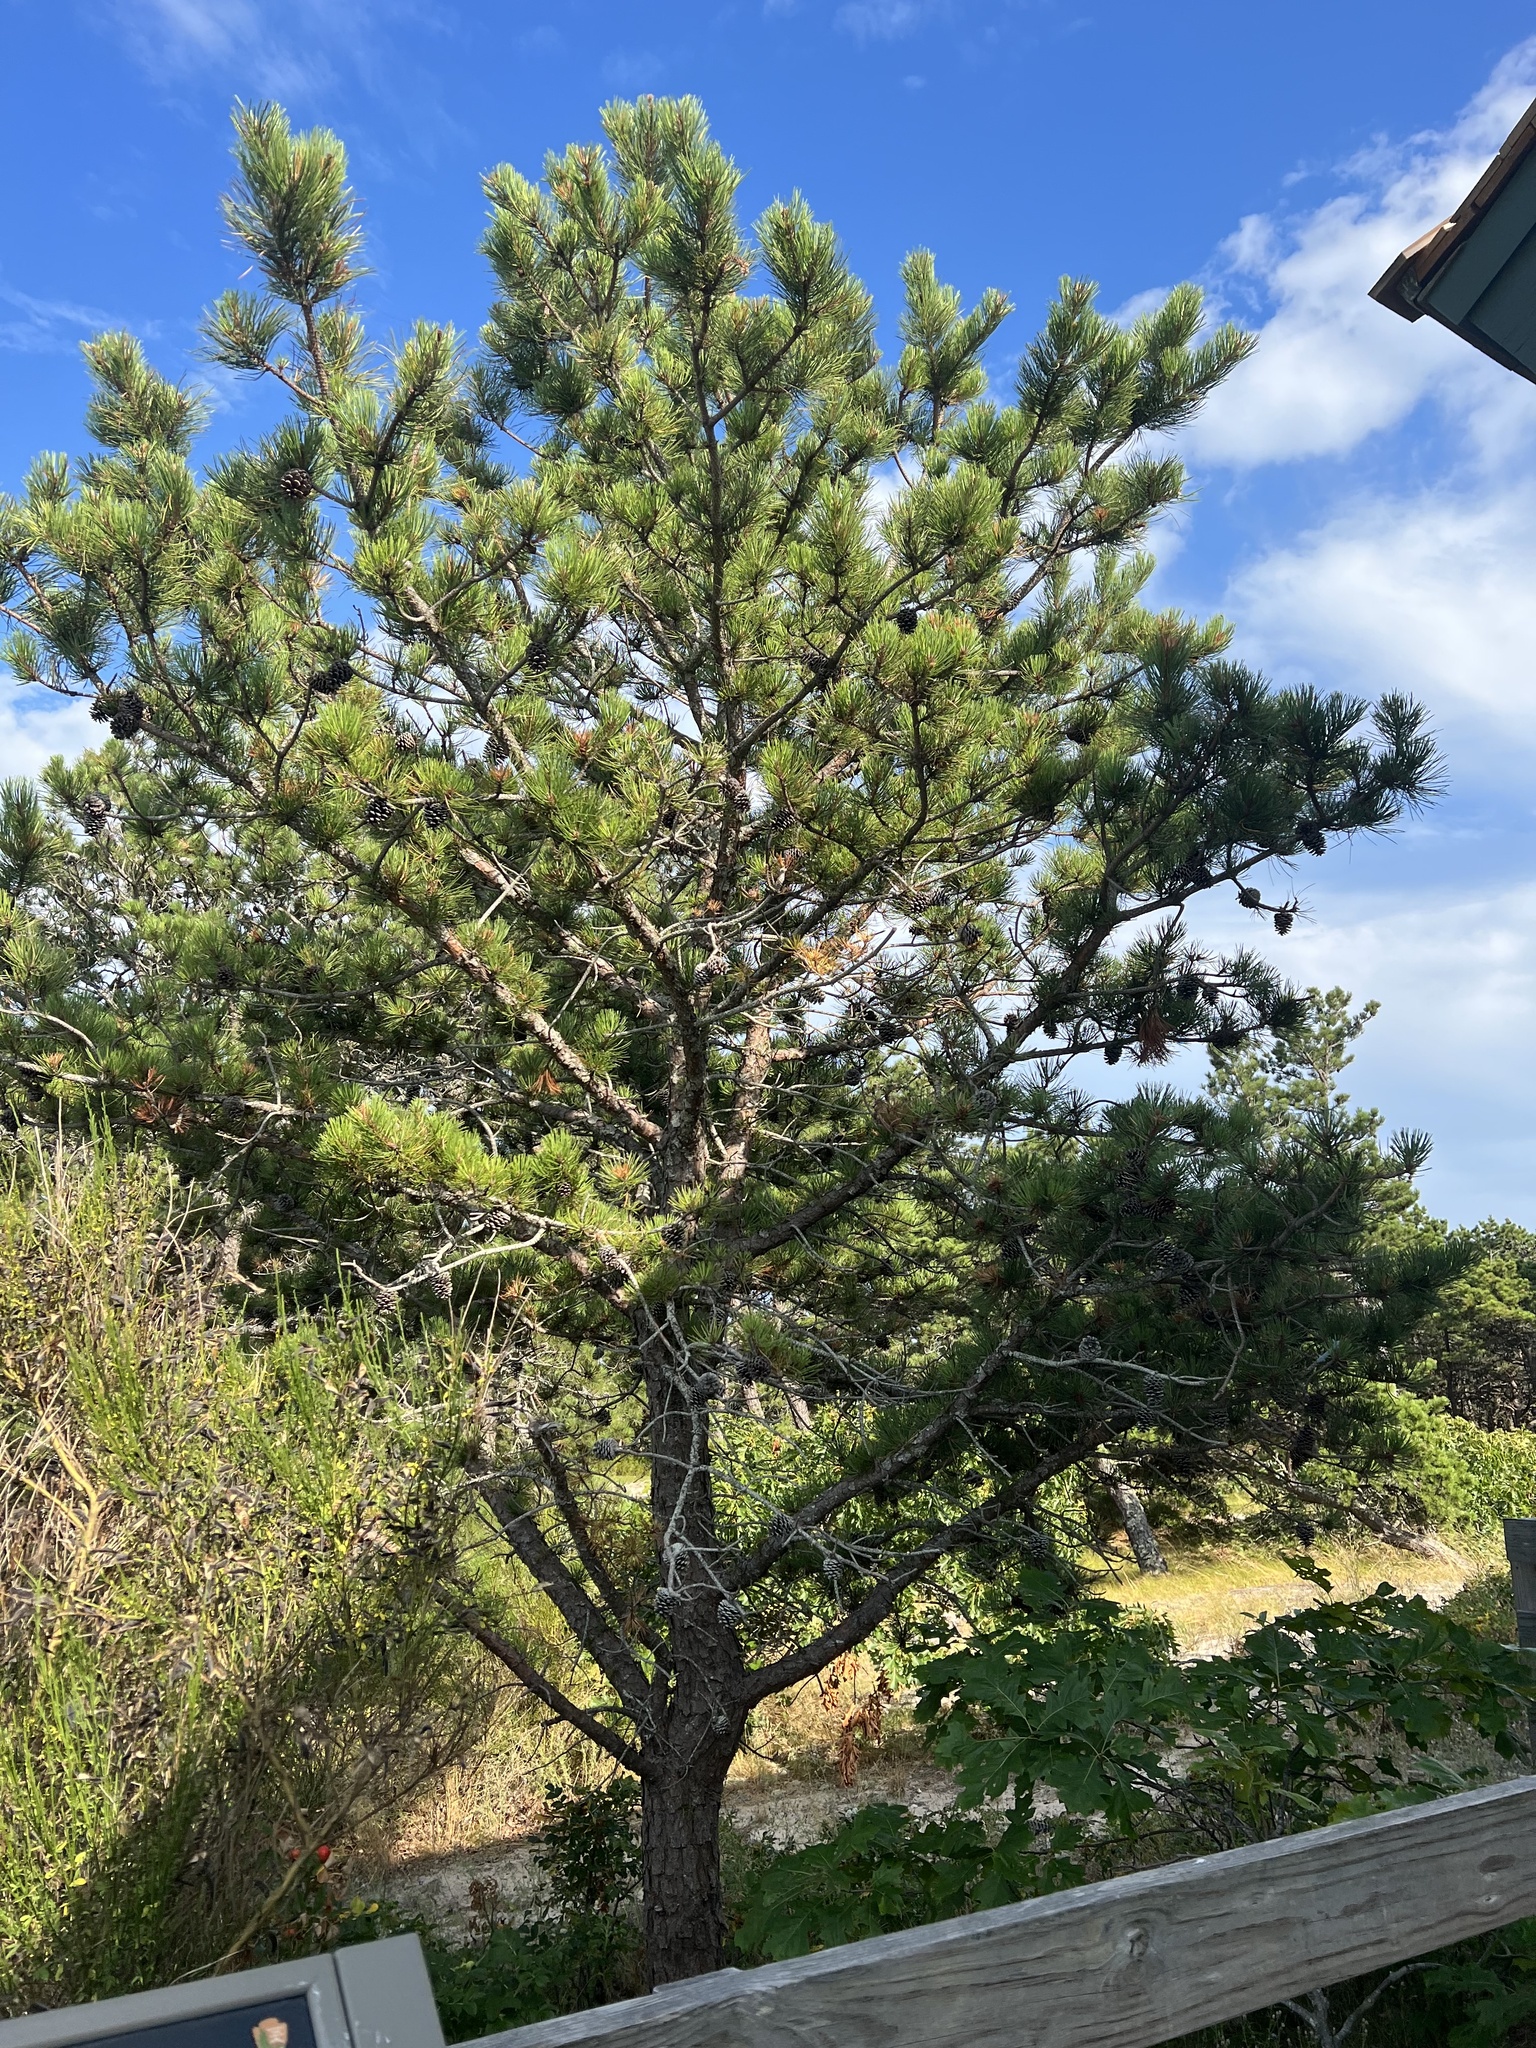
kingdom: Plantae
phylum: Tracheophyta
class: Pinopsida
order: Pinales
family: Pinaceae
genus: Pinus
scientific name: Pinus rigida
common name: Pitch pine
